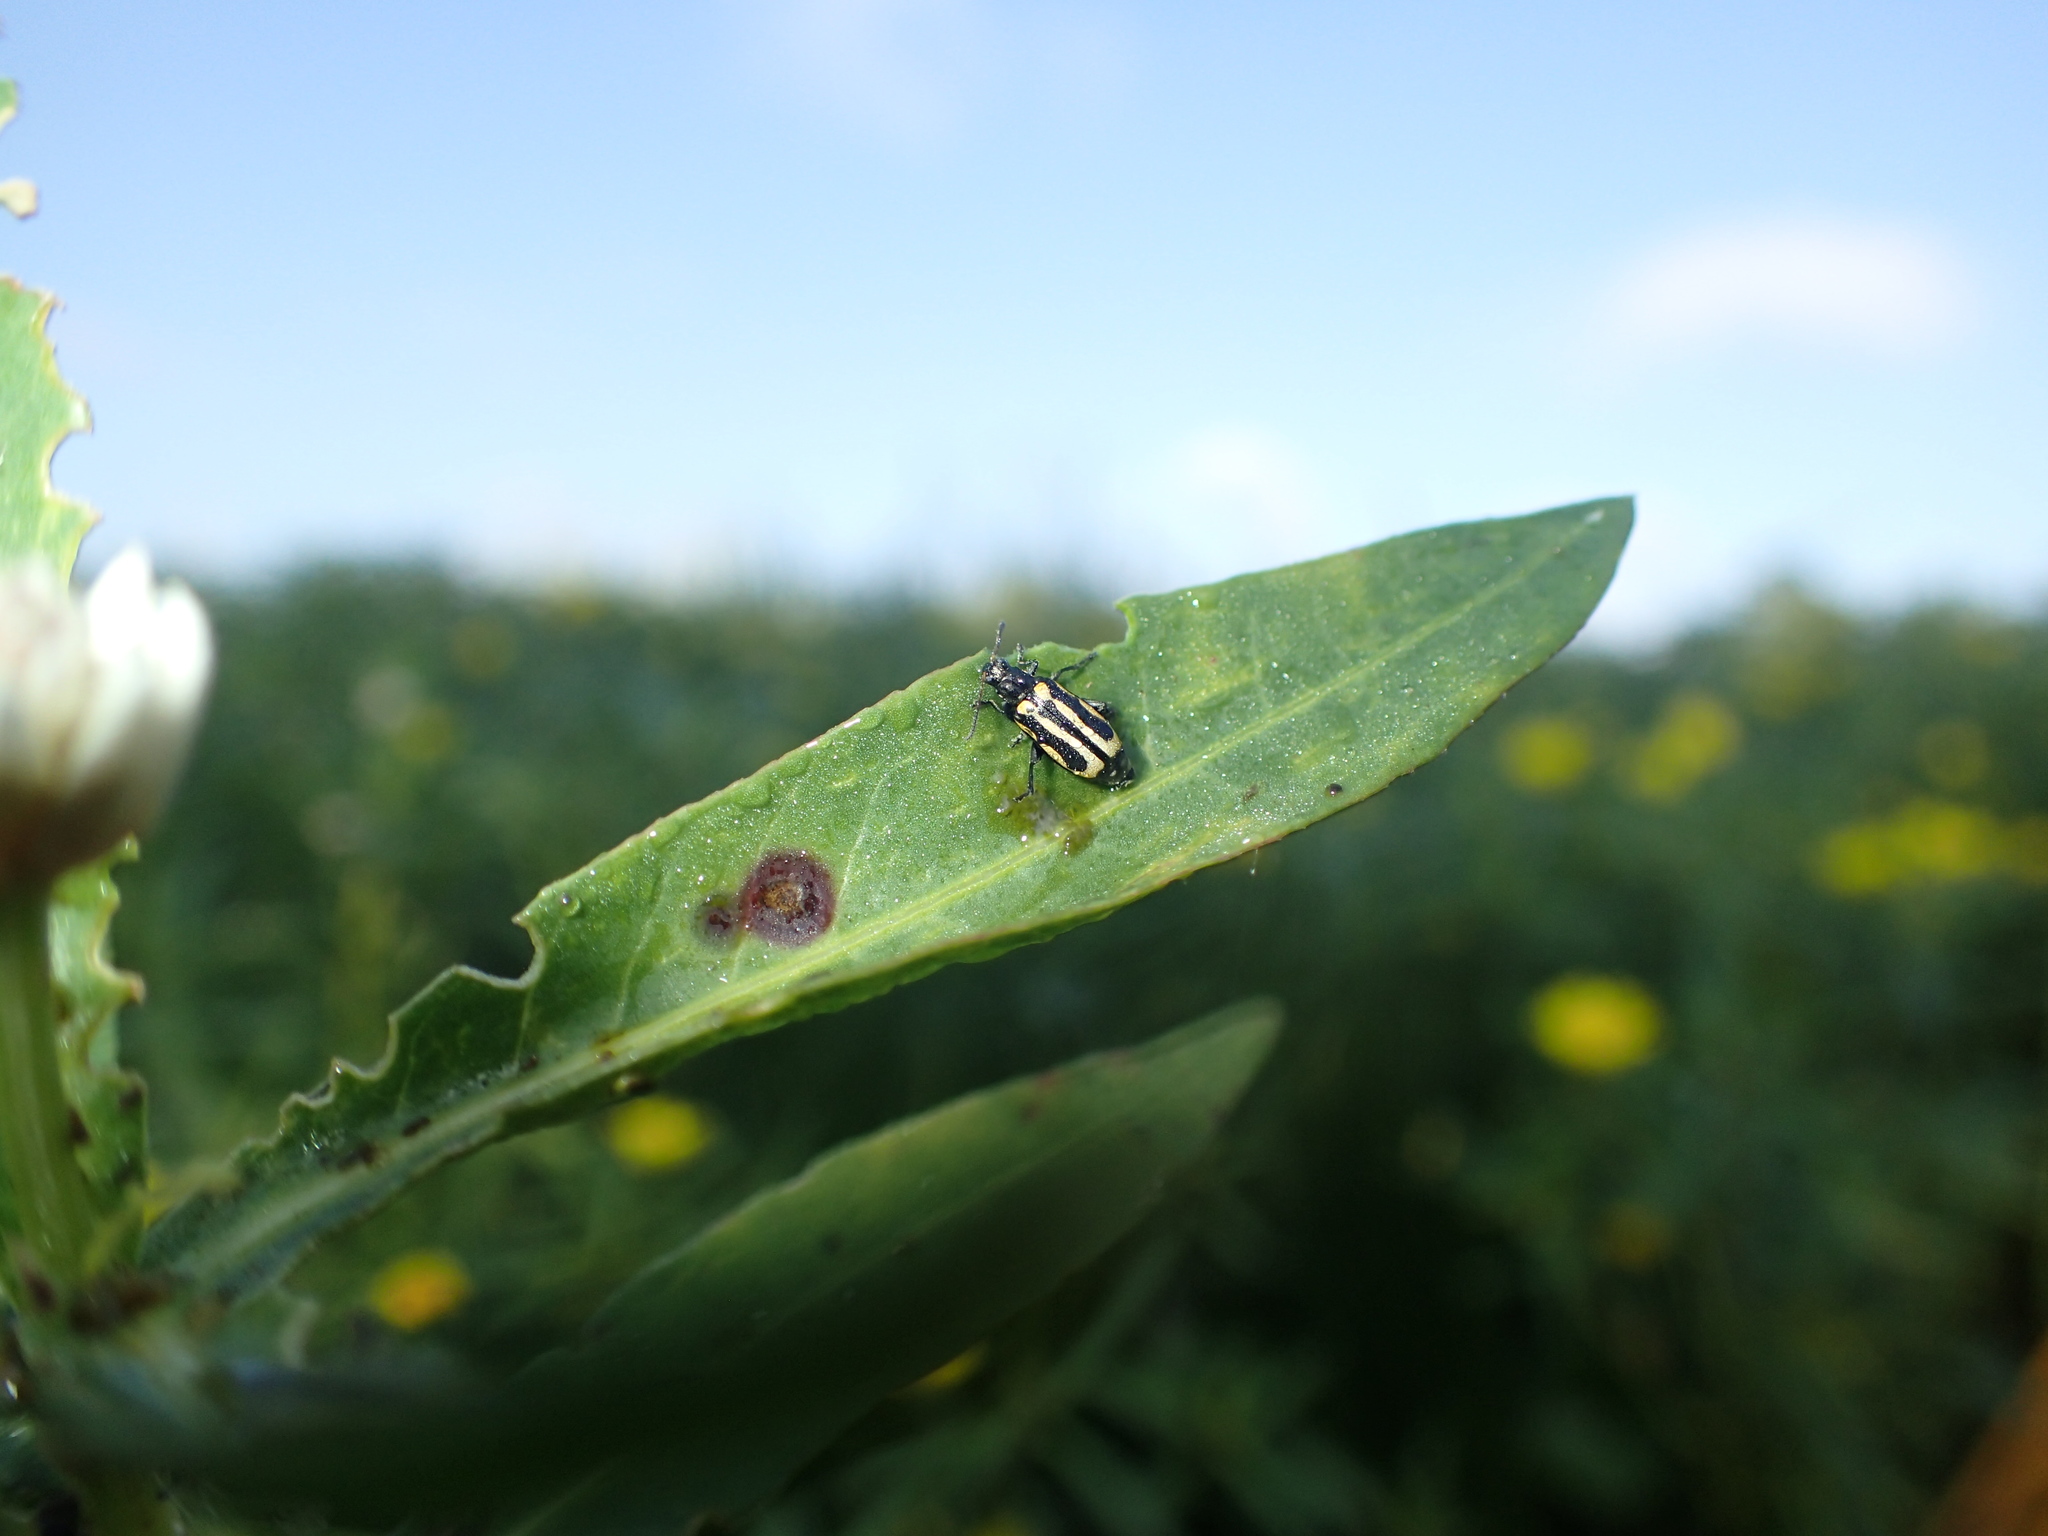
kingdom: Animalia
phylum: Arthropoda
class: Insecta
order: Coleoptera
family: Chrysomelidae
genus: Agasicles
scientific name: Agasicles hygrophila
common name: Alligatorweed flea beetle
